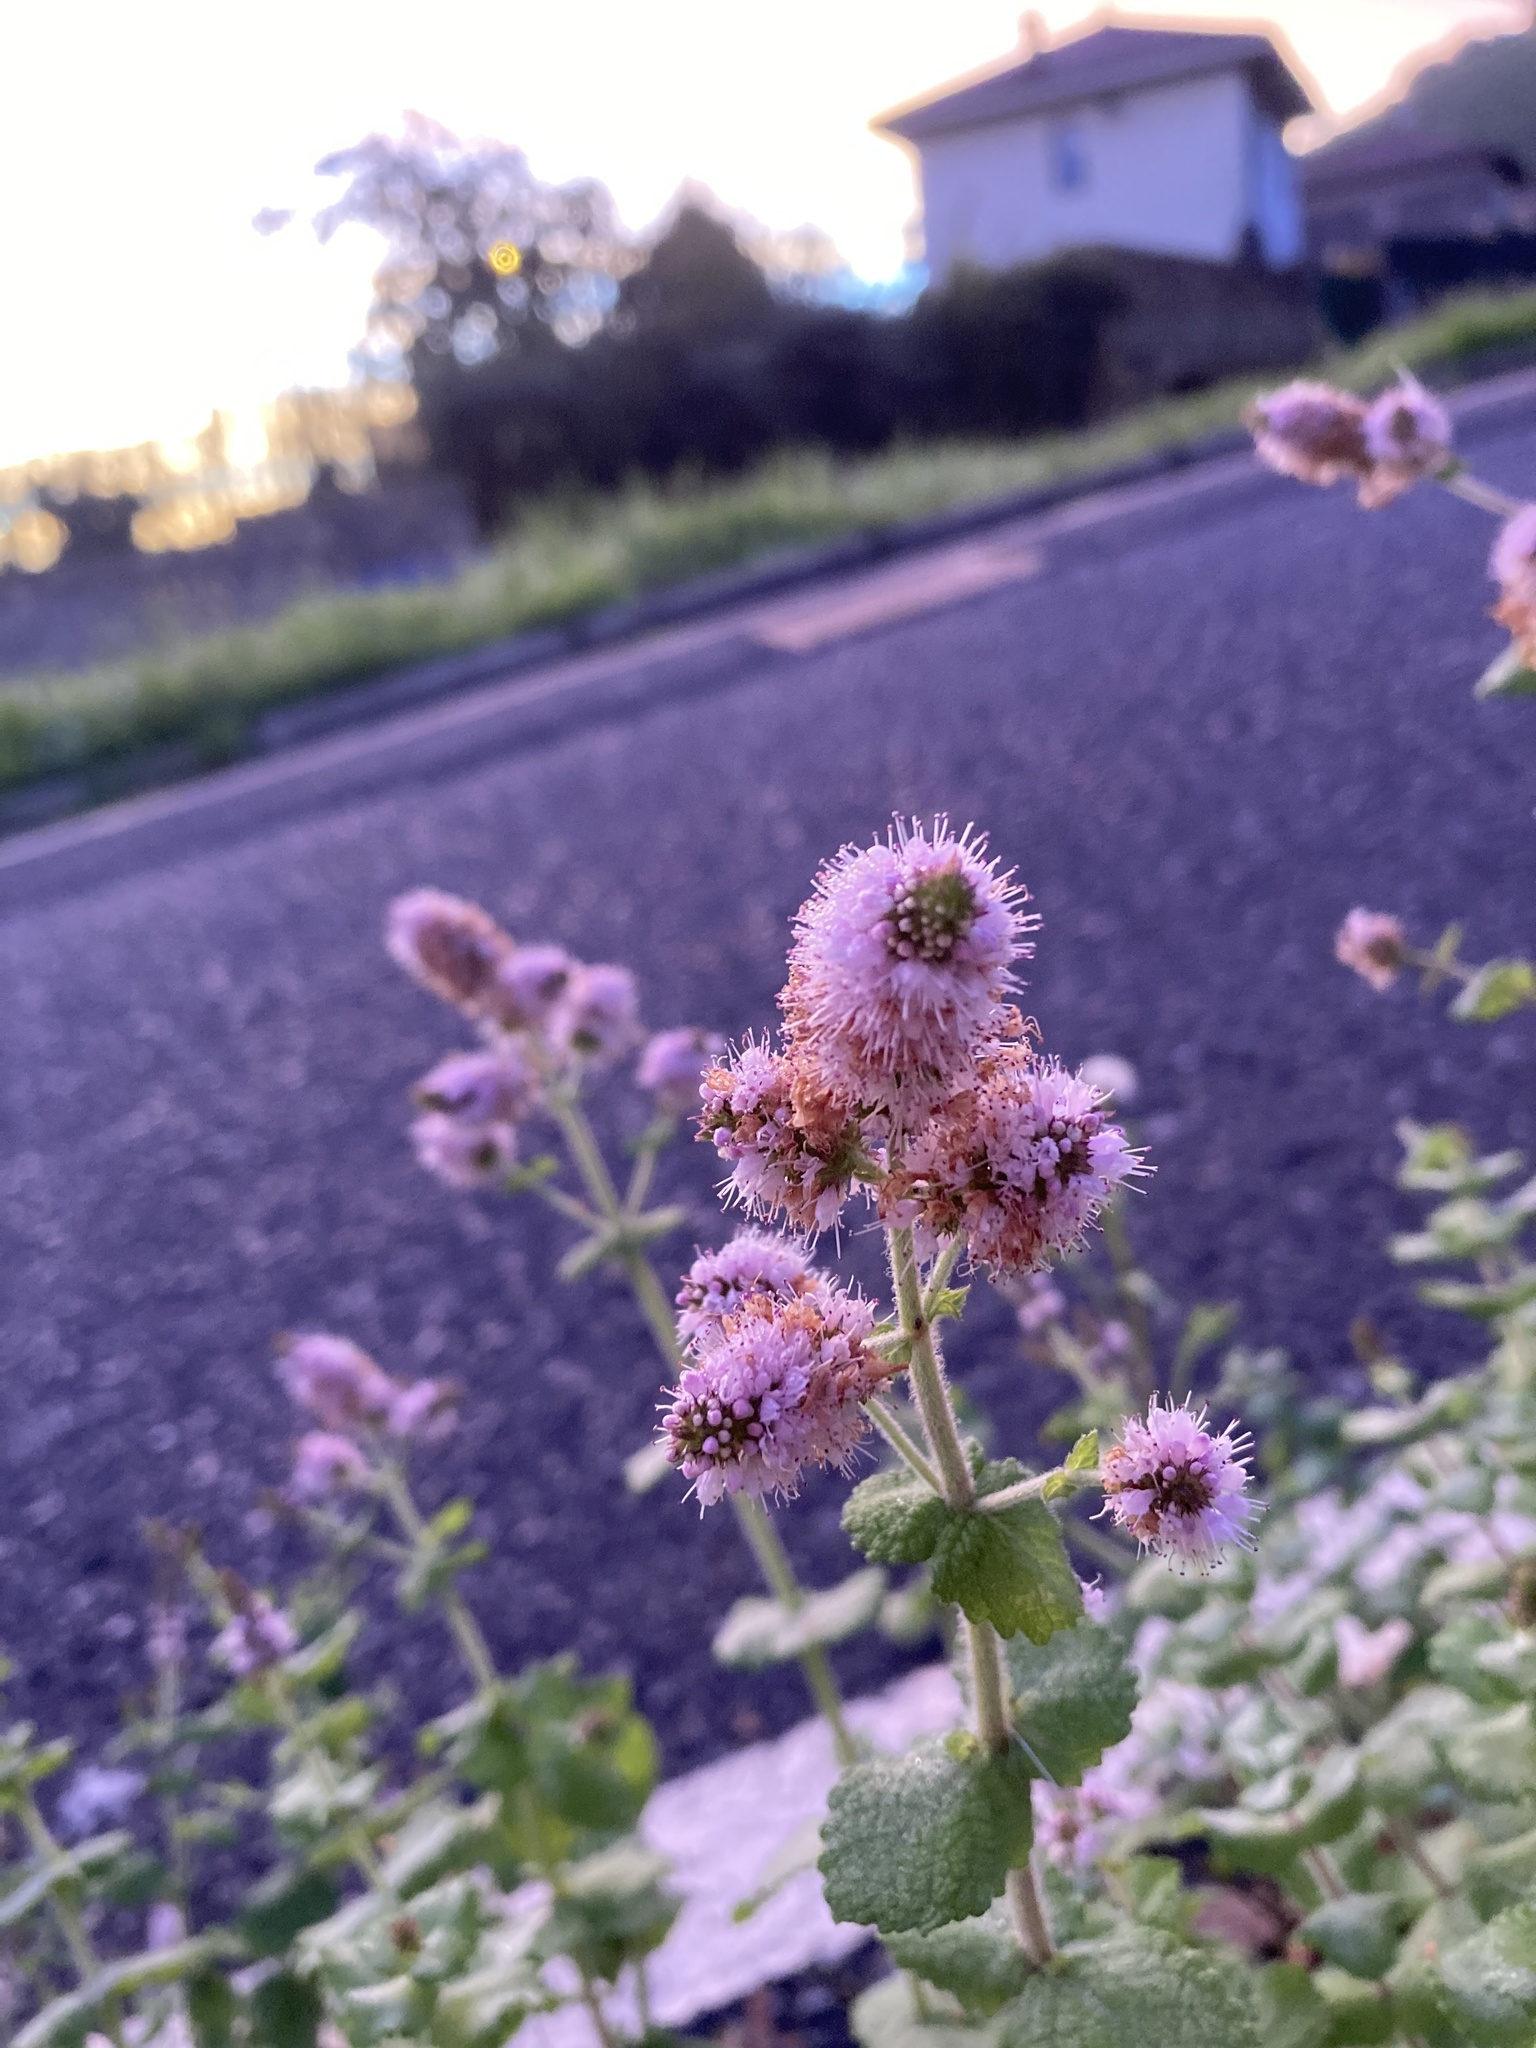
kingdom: Plantae
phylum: Tracheophyta
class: Magnoliopsida
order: Lamiales
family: Lamiaceae
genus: Mentha
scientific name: Mentha suaveolens
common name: Apple mint
